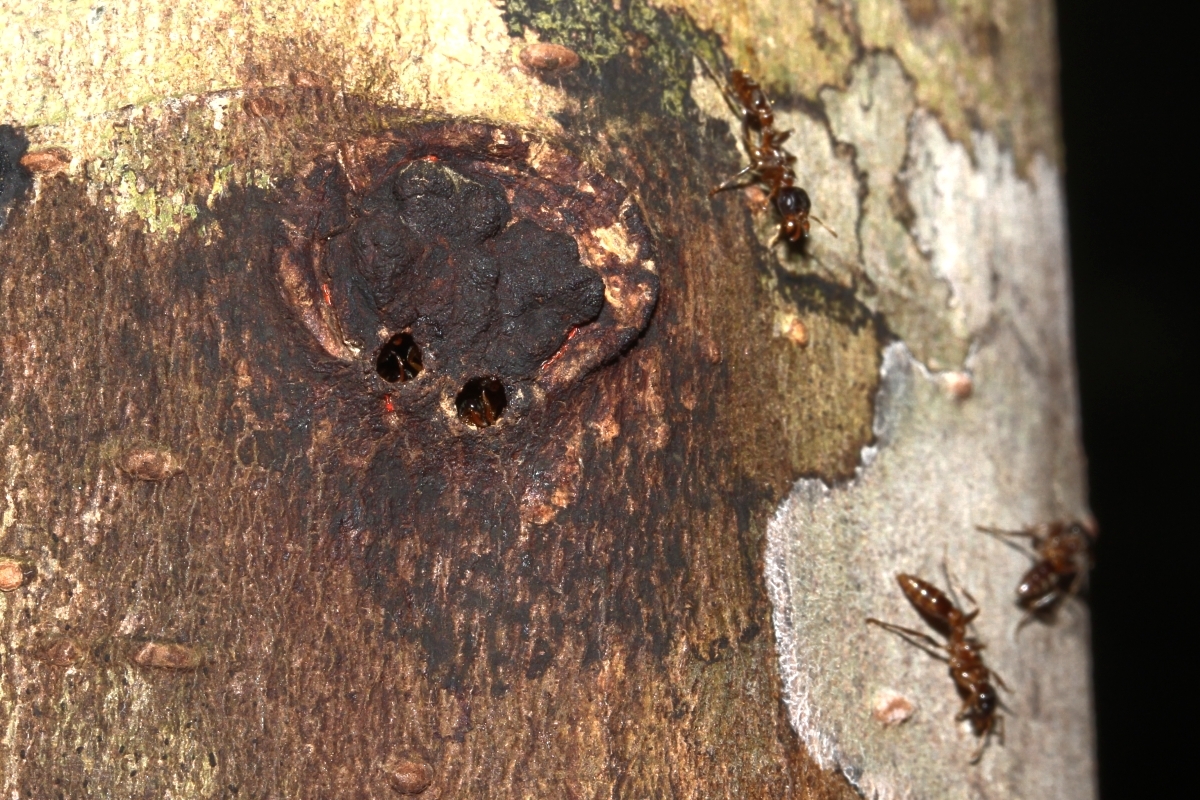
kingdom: Animalia
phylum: Arthropoda
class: Insecta
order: Hymenoptera
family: Formicidae
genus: Pseudomyrmex
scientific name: Pseudomyrmex
